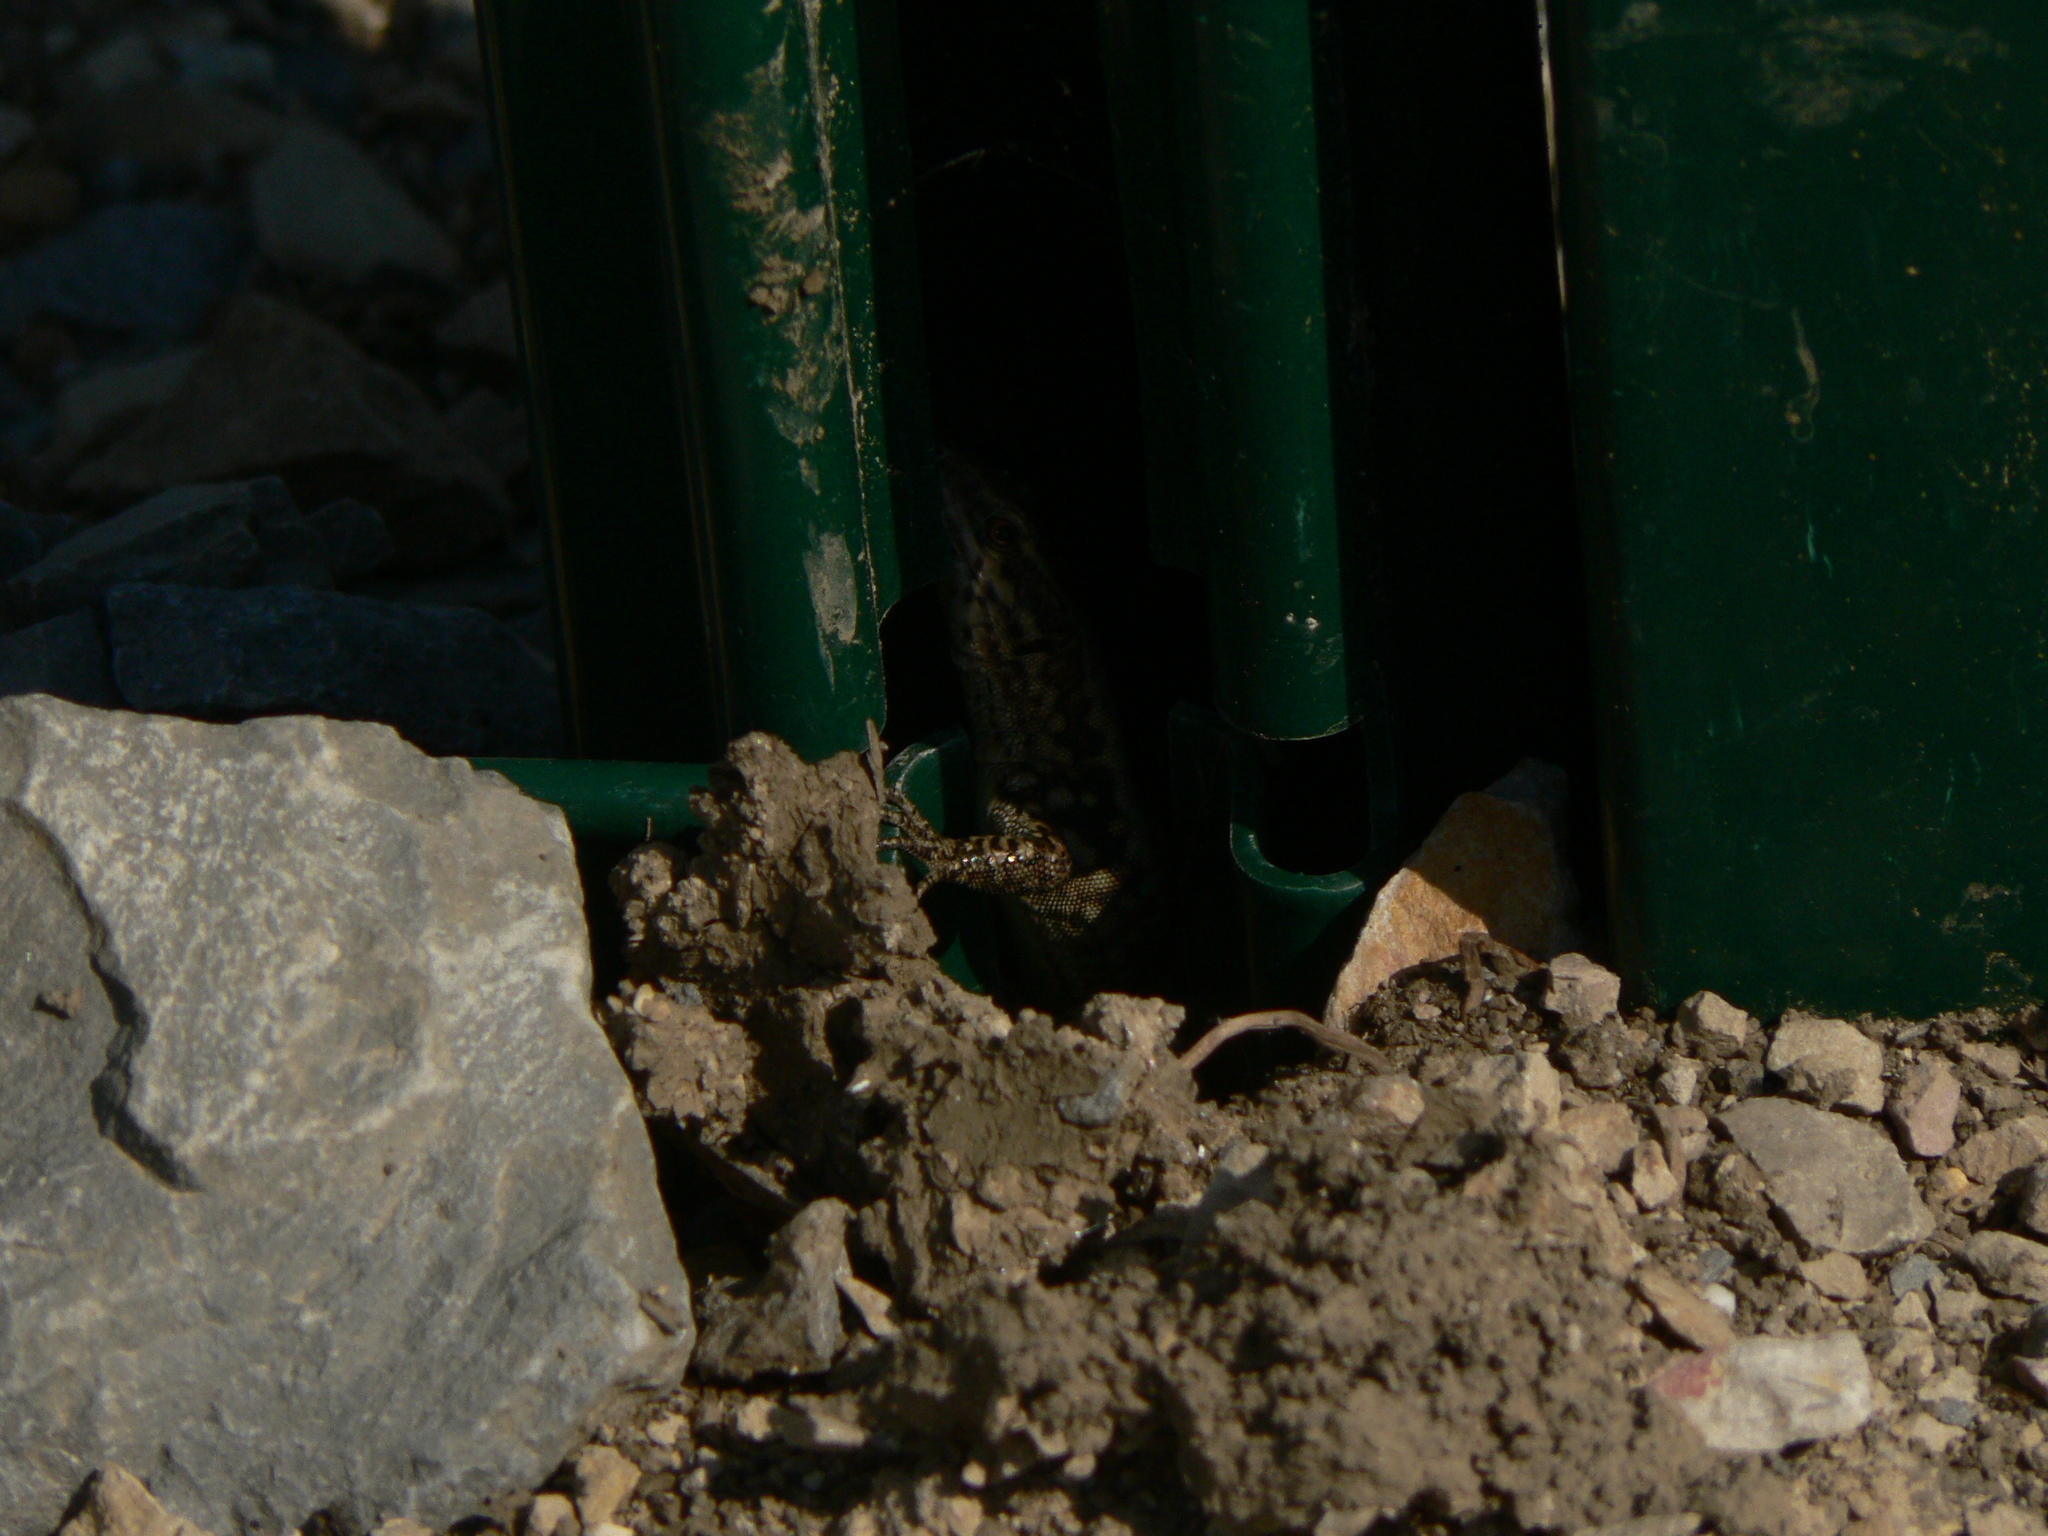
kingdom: Animalia
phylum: Chordata
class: Squamata
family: Lacertidae
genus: Podarcis
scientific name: Podarcis muralis
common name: Common wall lizard
